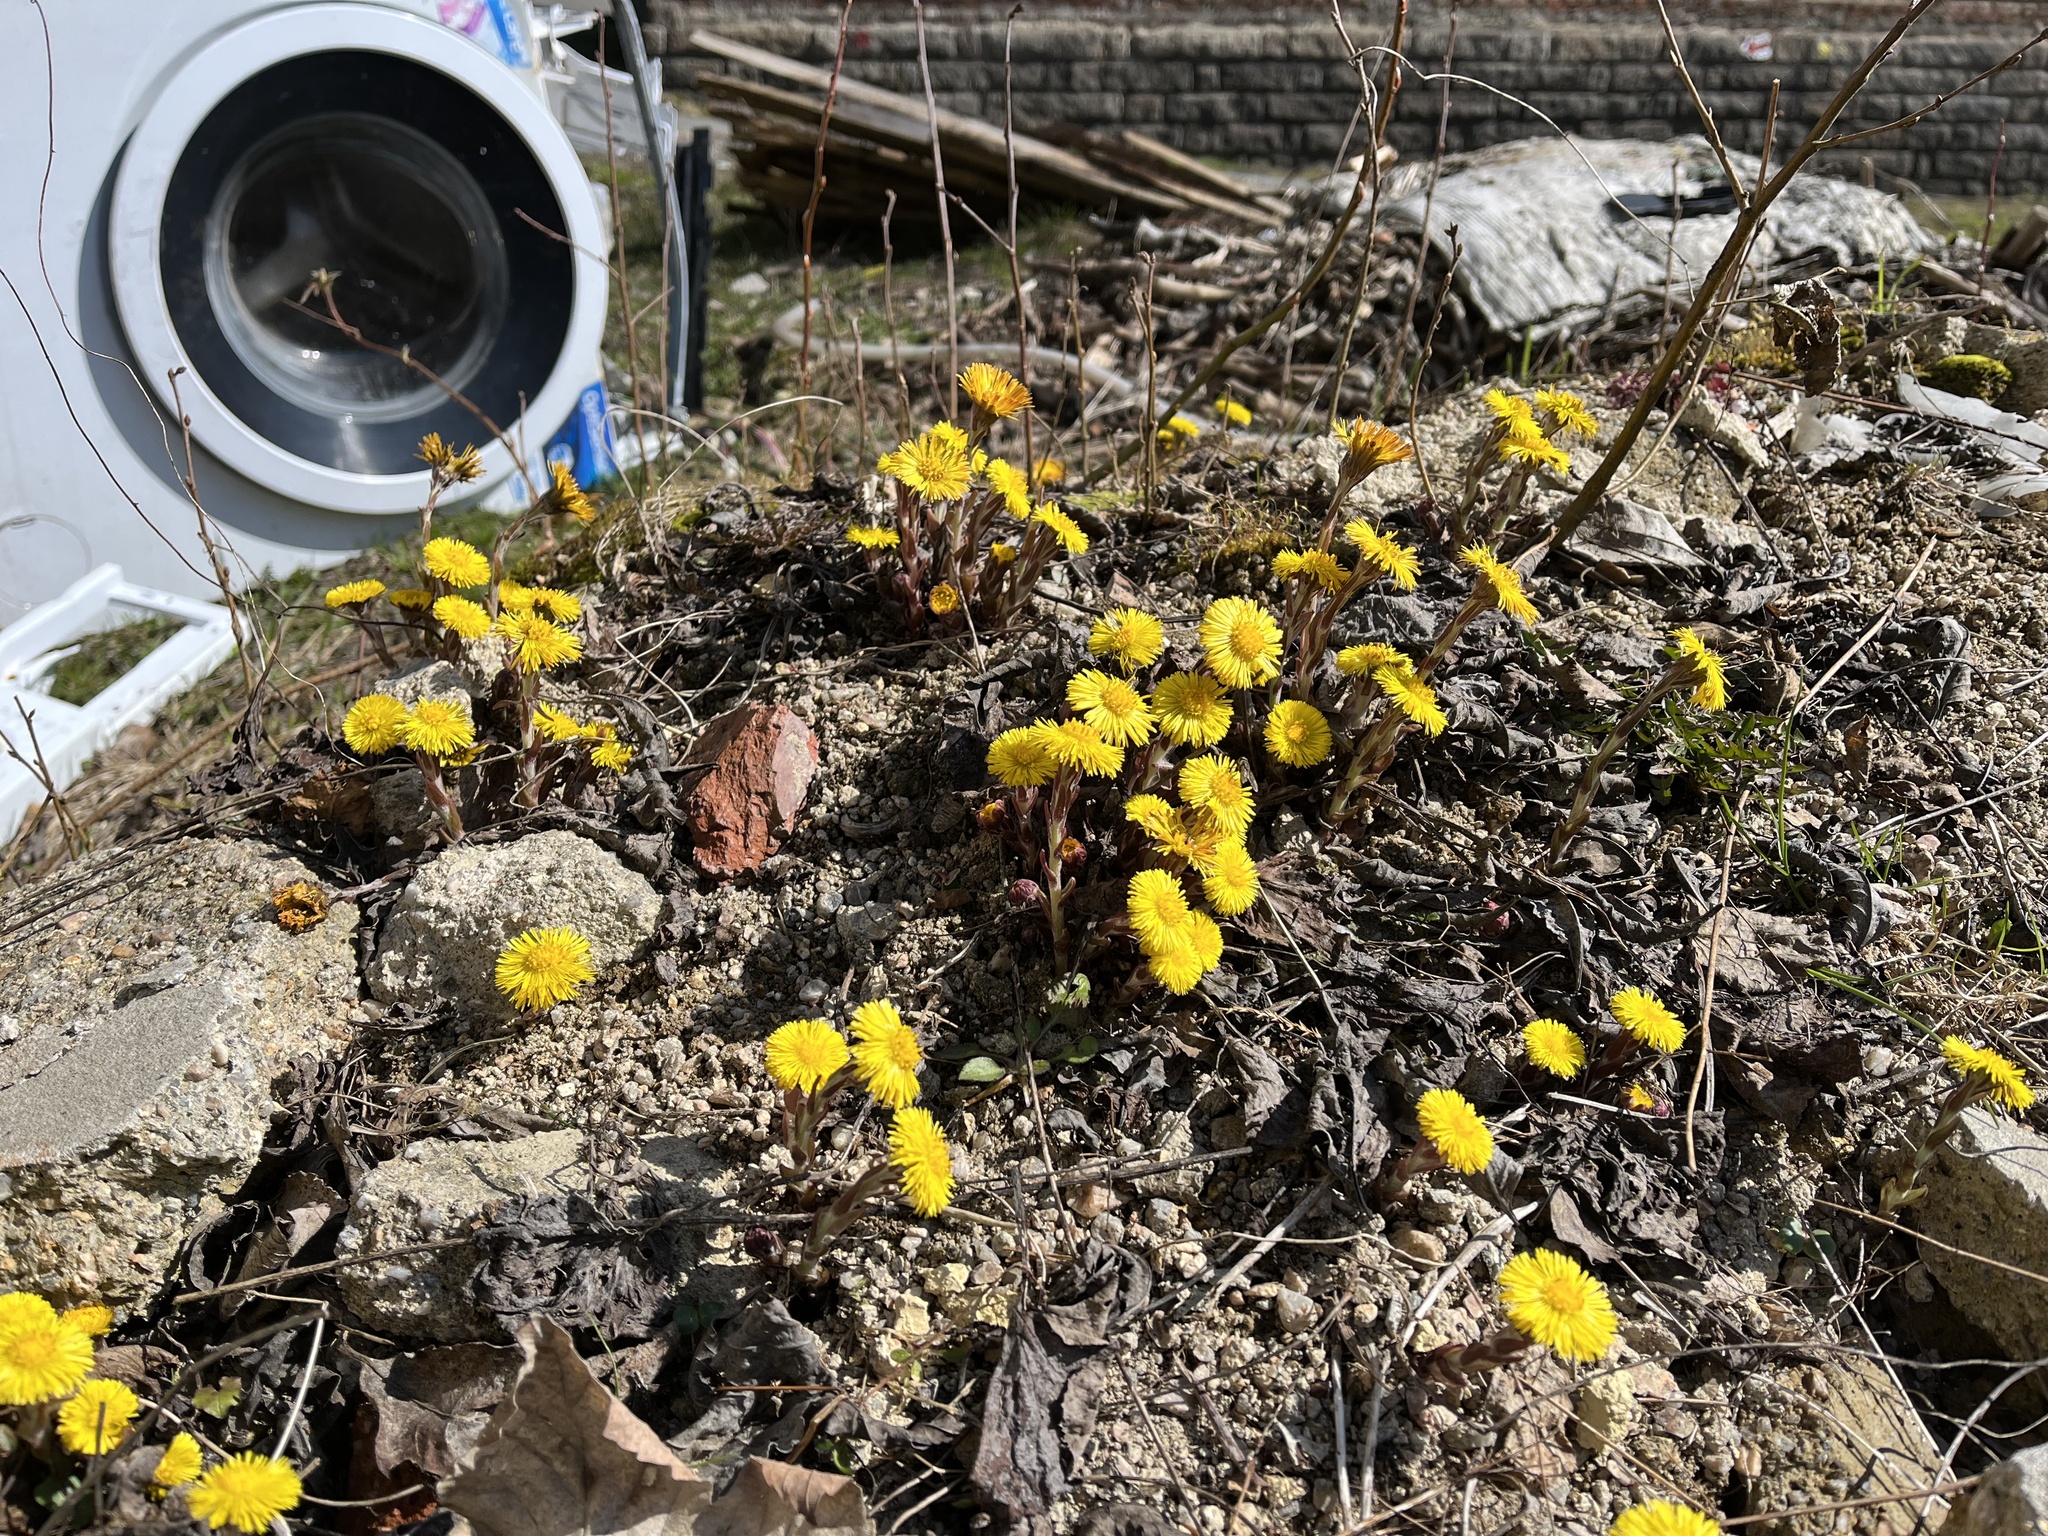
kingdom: Plantae
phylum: Tracheophyta
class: Magnoliopsida
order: Asterales
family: Asteraceae
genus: Tussilago
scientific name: Tussilago farfara
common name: Coltsfoot
